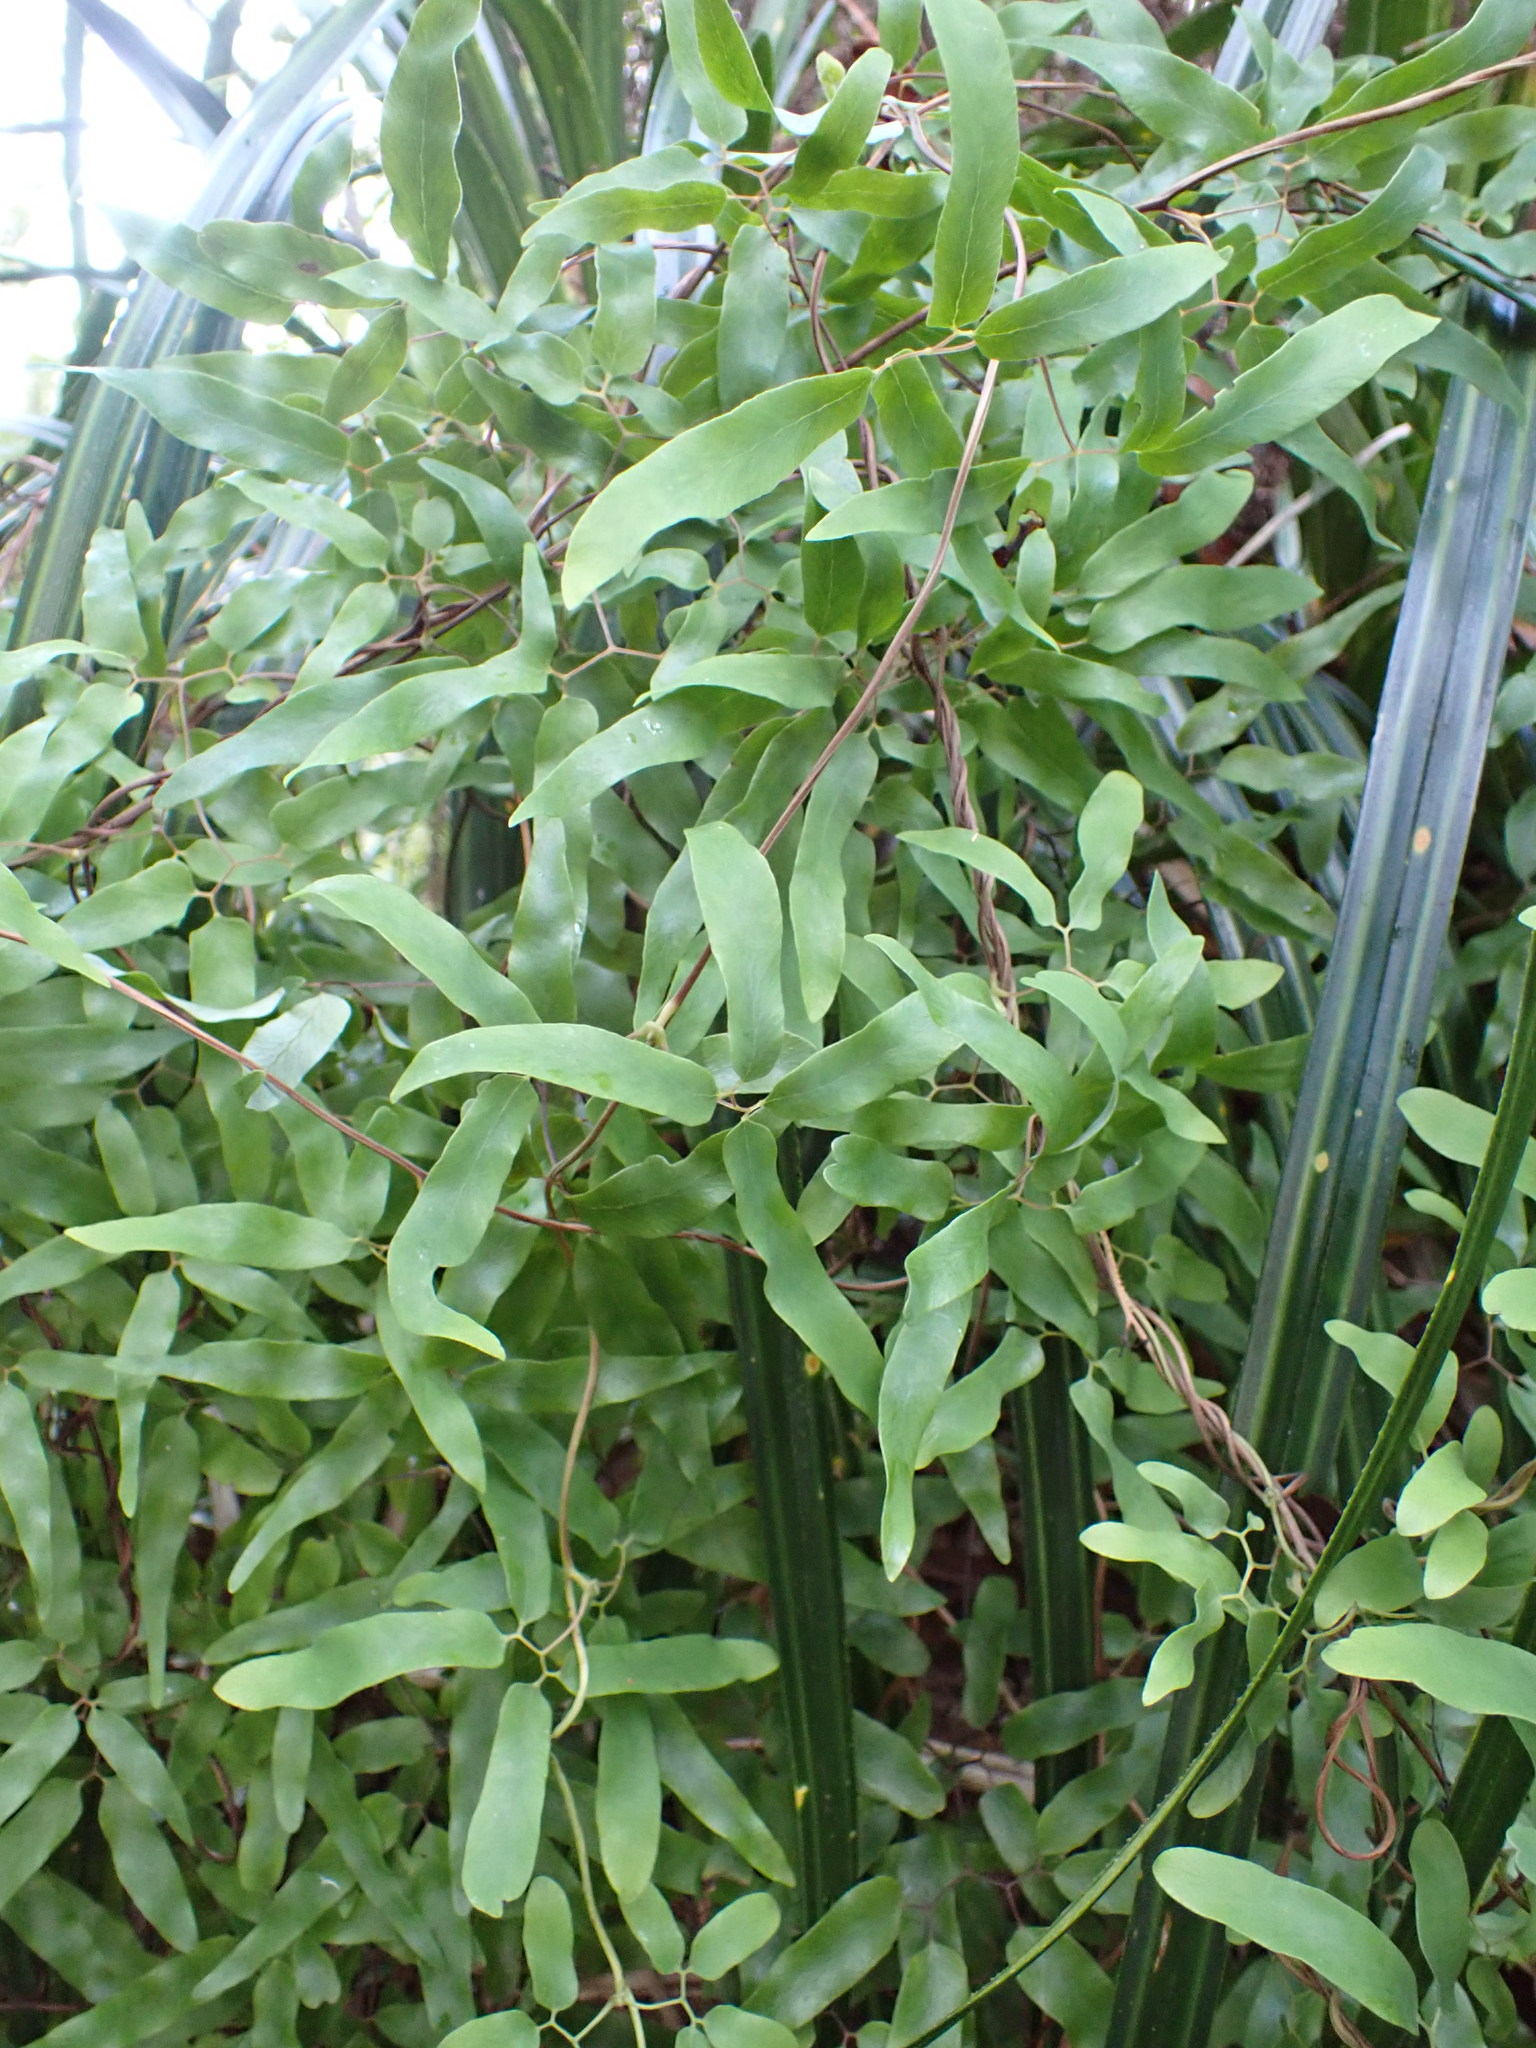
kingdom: Plantae
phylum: Tracheophyta
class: Polypodiopsida
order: Schizaeales
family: Lygodiaceae
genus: Lygodium
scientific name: Lygodium articulatum
